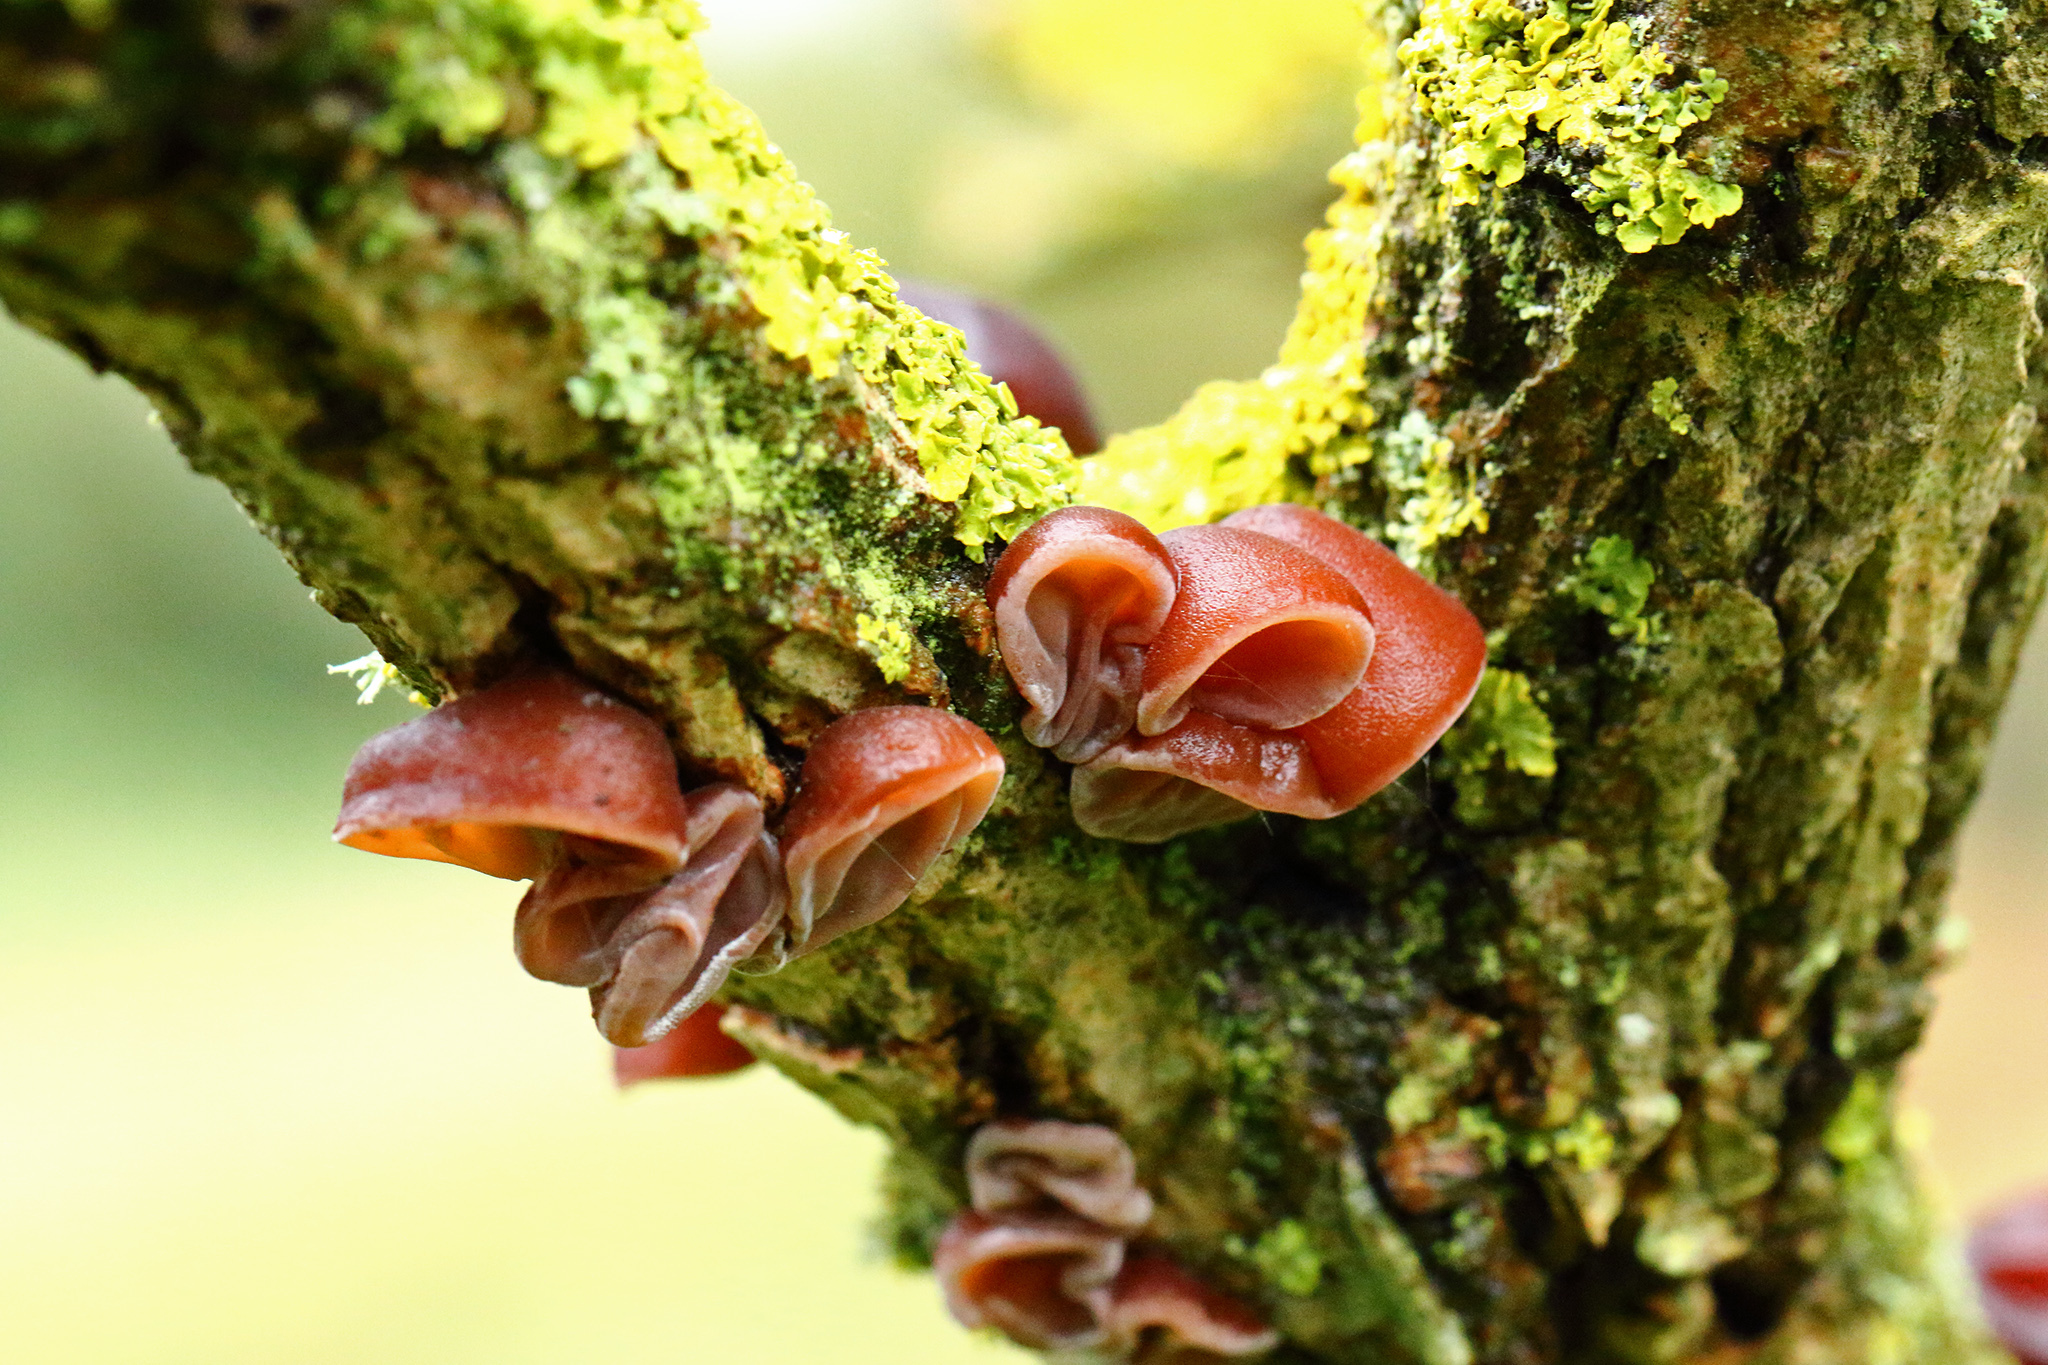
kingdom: Fungi
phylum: Basidiomycota
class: Agaricomycetes
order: Auriculariales
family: Auriculariaceae
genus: Auricularia
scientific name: Auricularia auricula-judae
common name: Jelly ear
